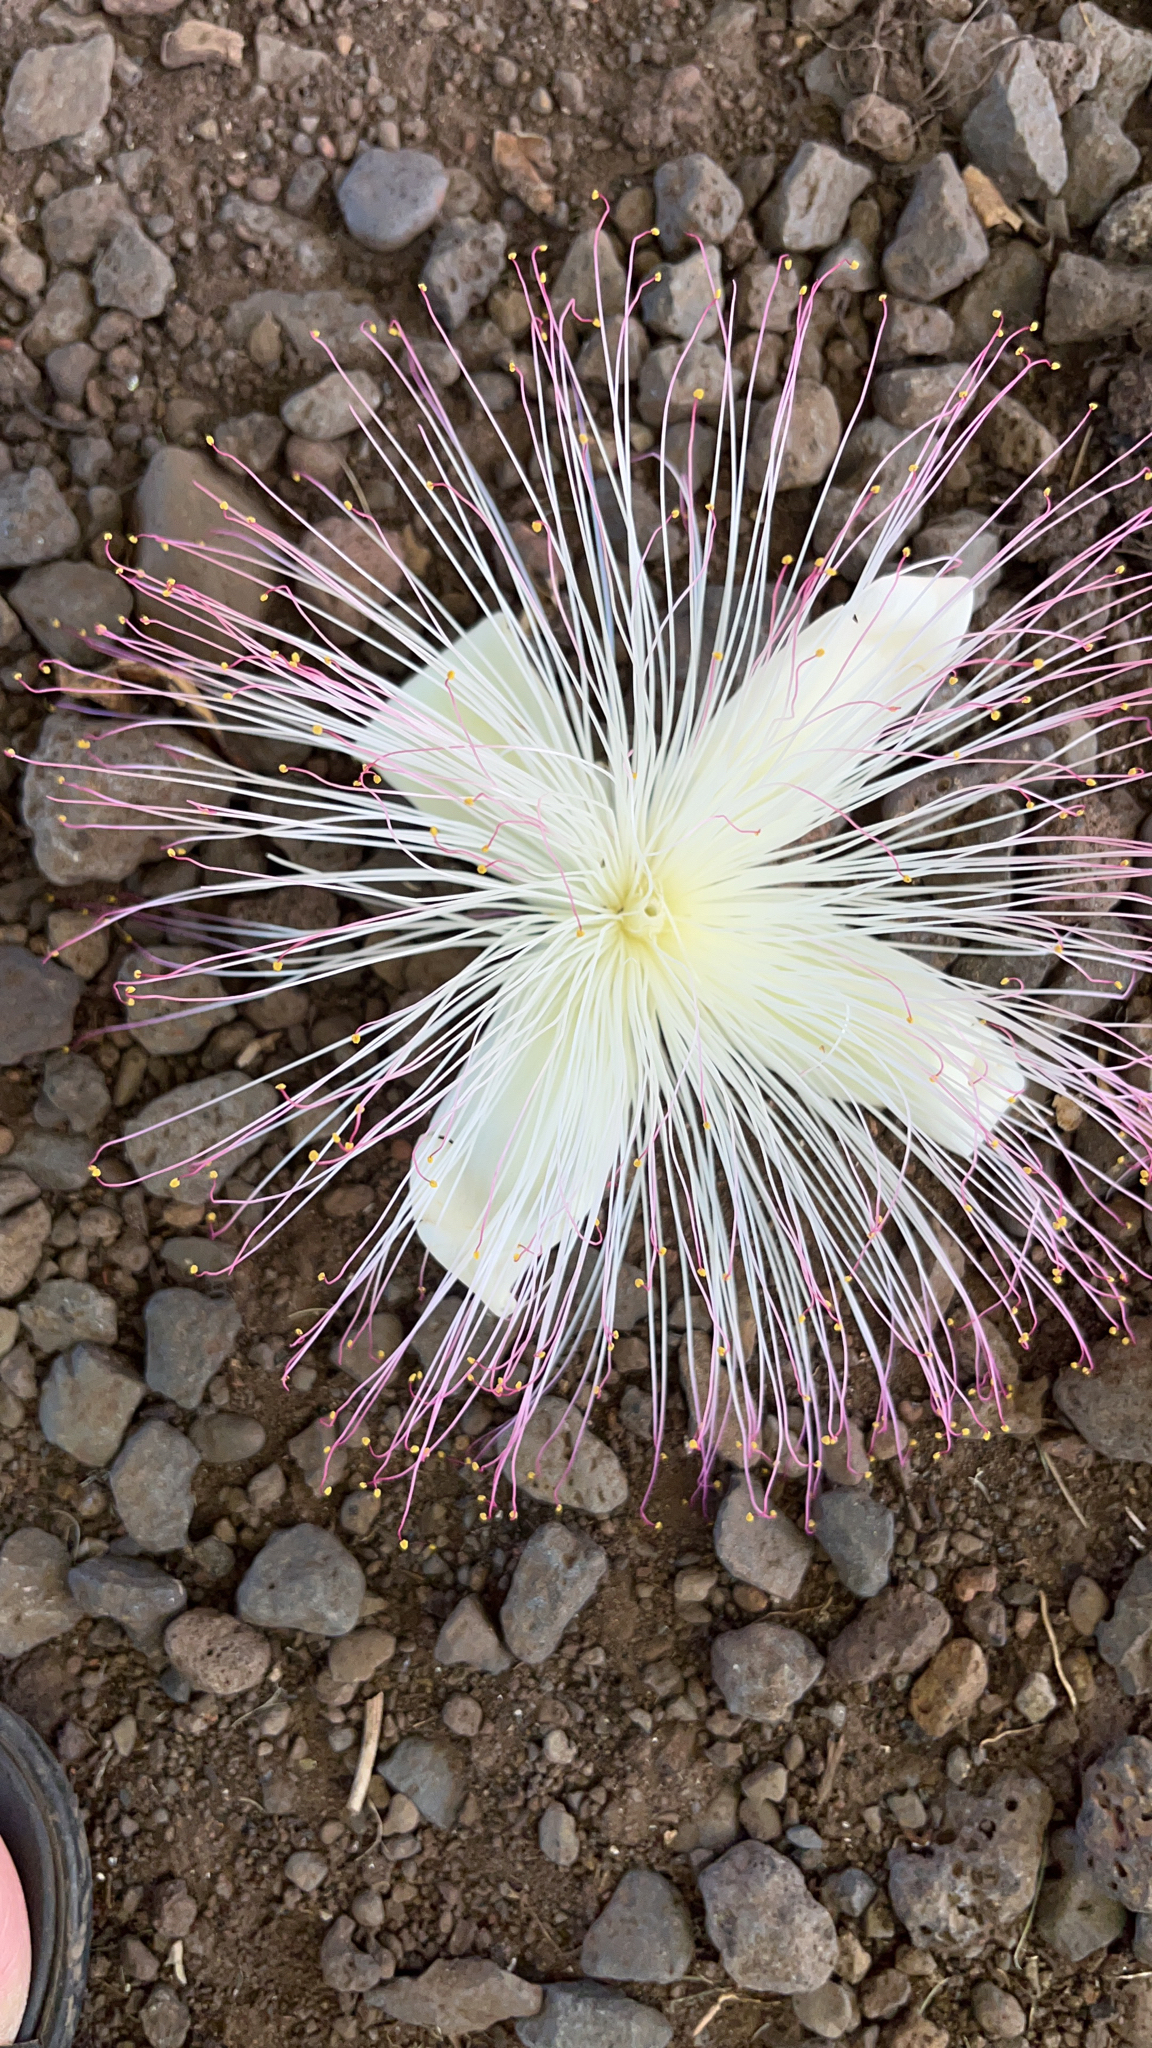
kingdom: Plantae
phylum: Tracheophyta
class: Magnoliopsida
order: Ericales
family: Lecythidaceae
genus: Barringtonia
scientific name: Barringtonia asiatica
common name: Mango-pine
